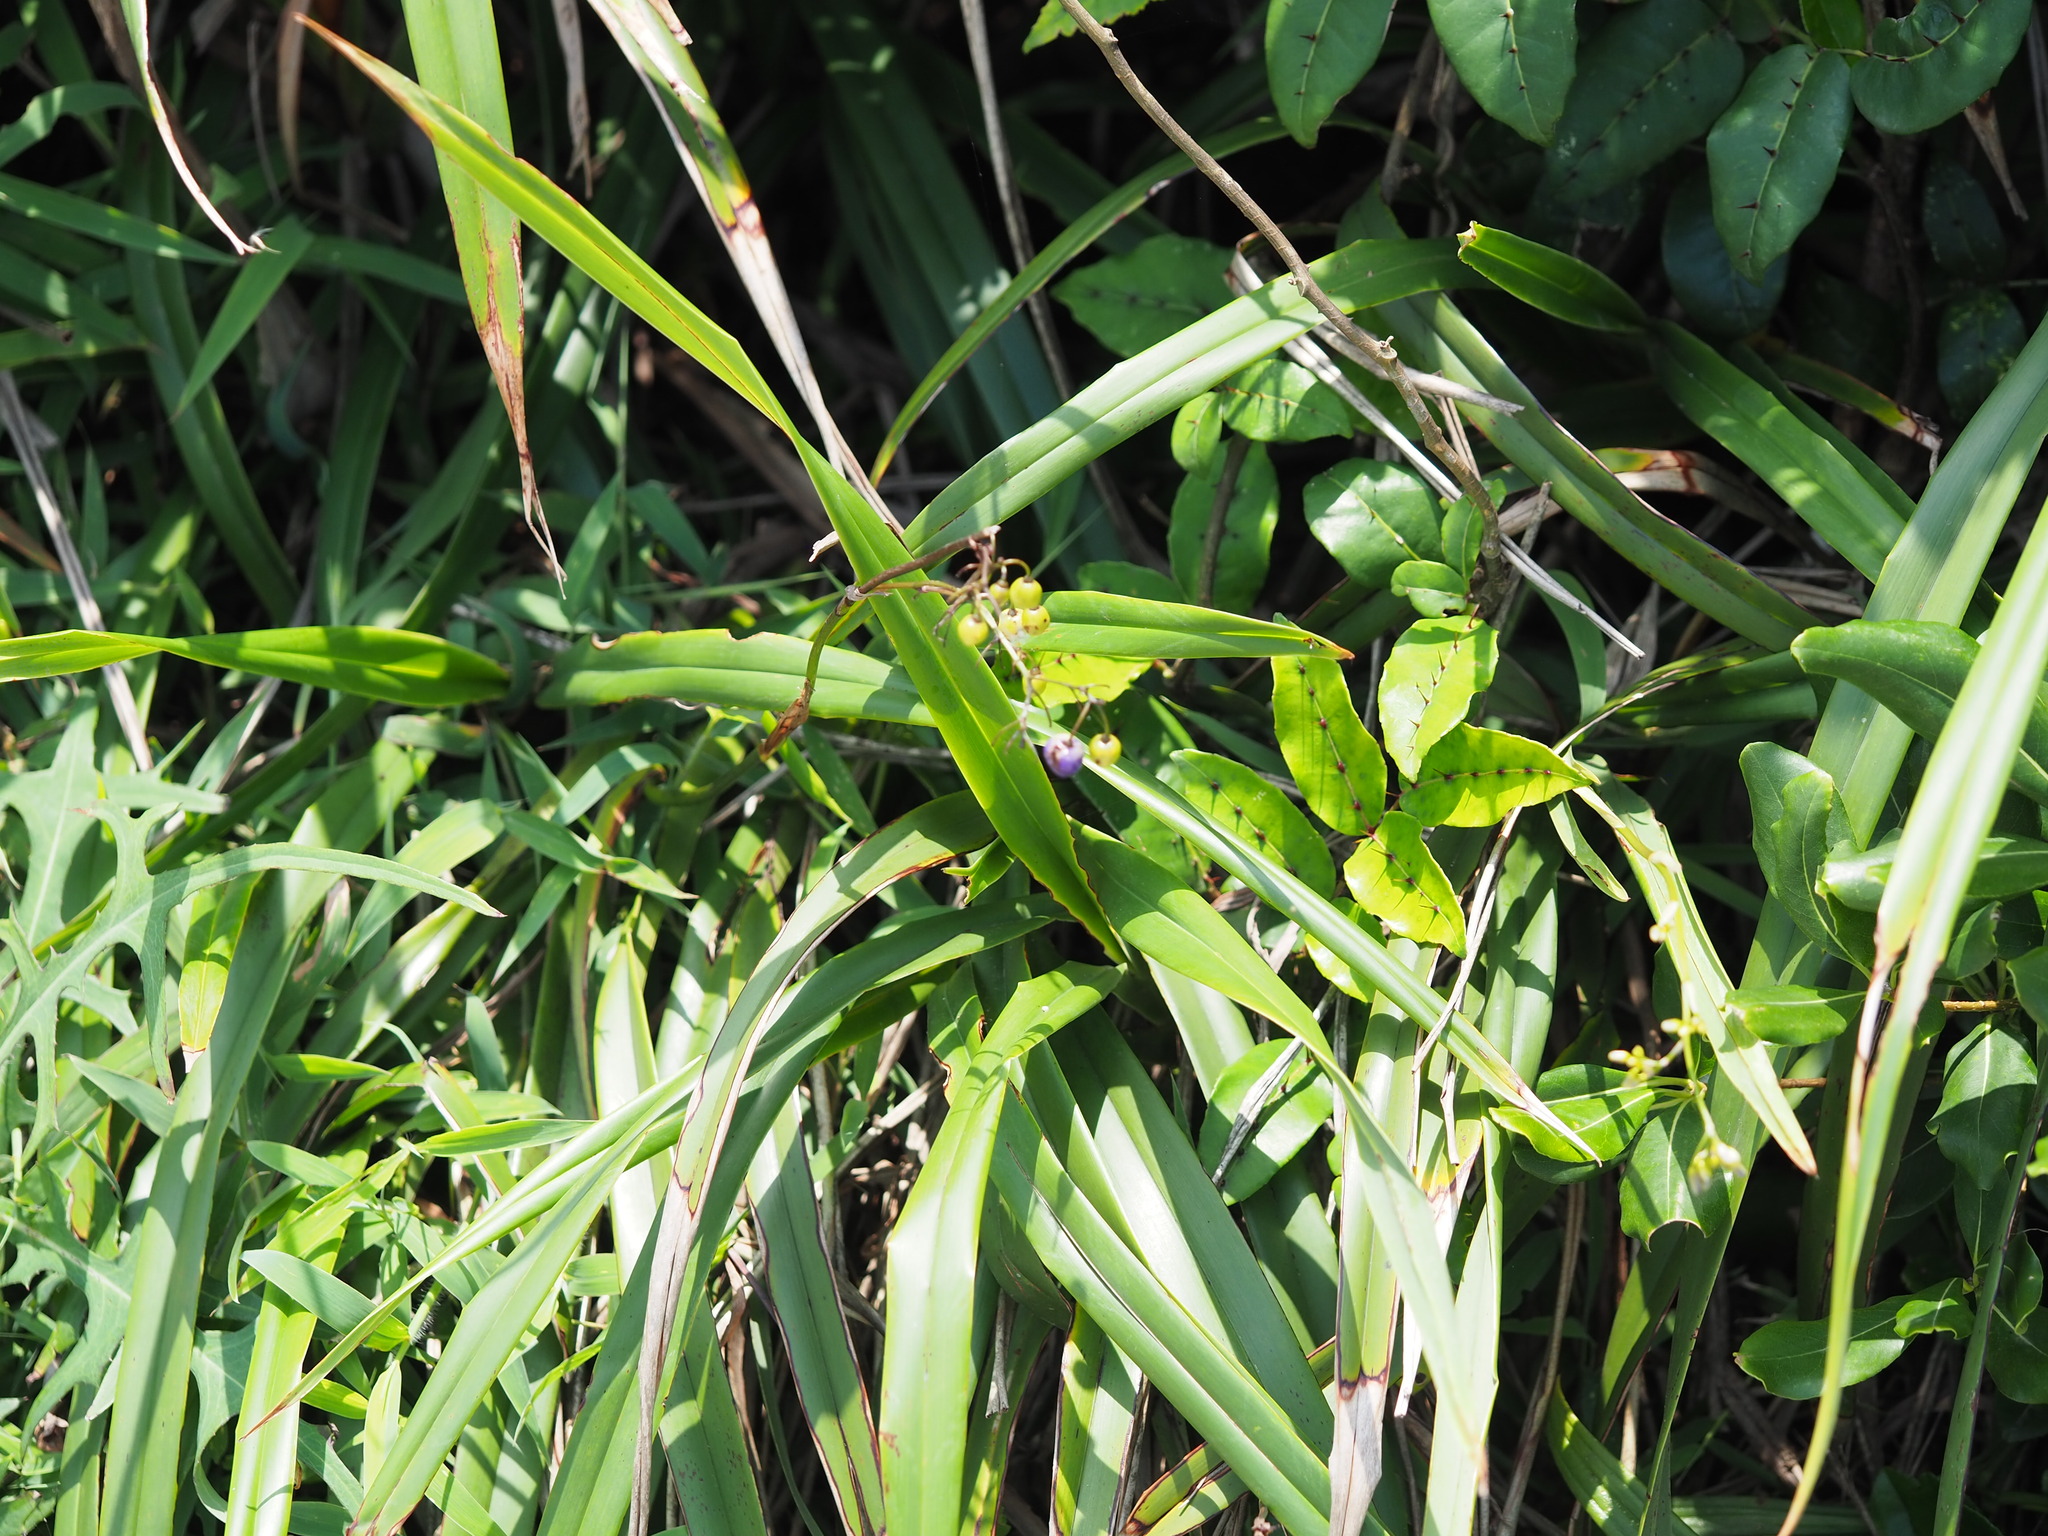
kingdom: Plantae
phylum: Tracheophyta
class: Liliopsida
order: Asparagales
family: Asphodelaceae
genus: Dianella
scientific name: Dianella ensifolia
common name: New zealand lilyplant
